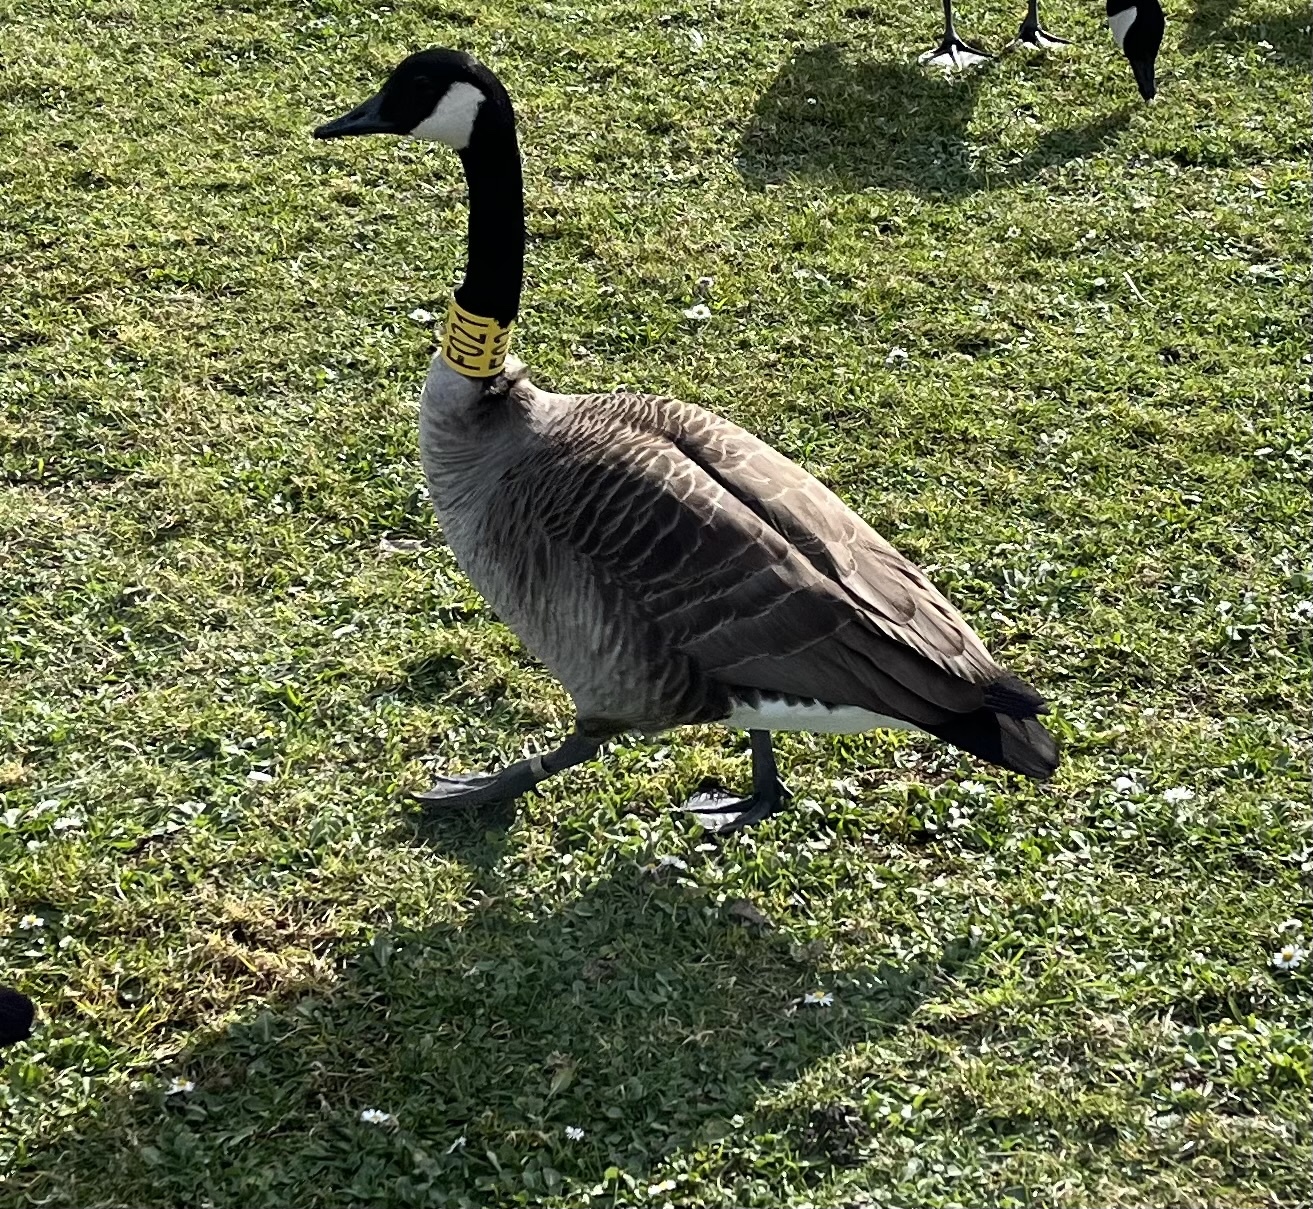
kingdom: Animalia
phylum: Chordata
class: Aves
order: Anseriformes
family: Anatidae
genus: Branta
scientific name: Branta canadensis
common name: Canada goose
